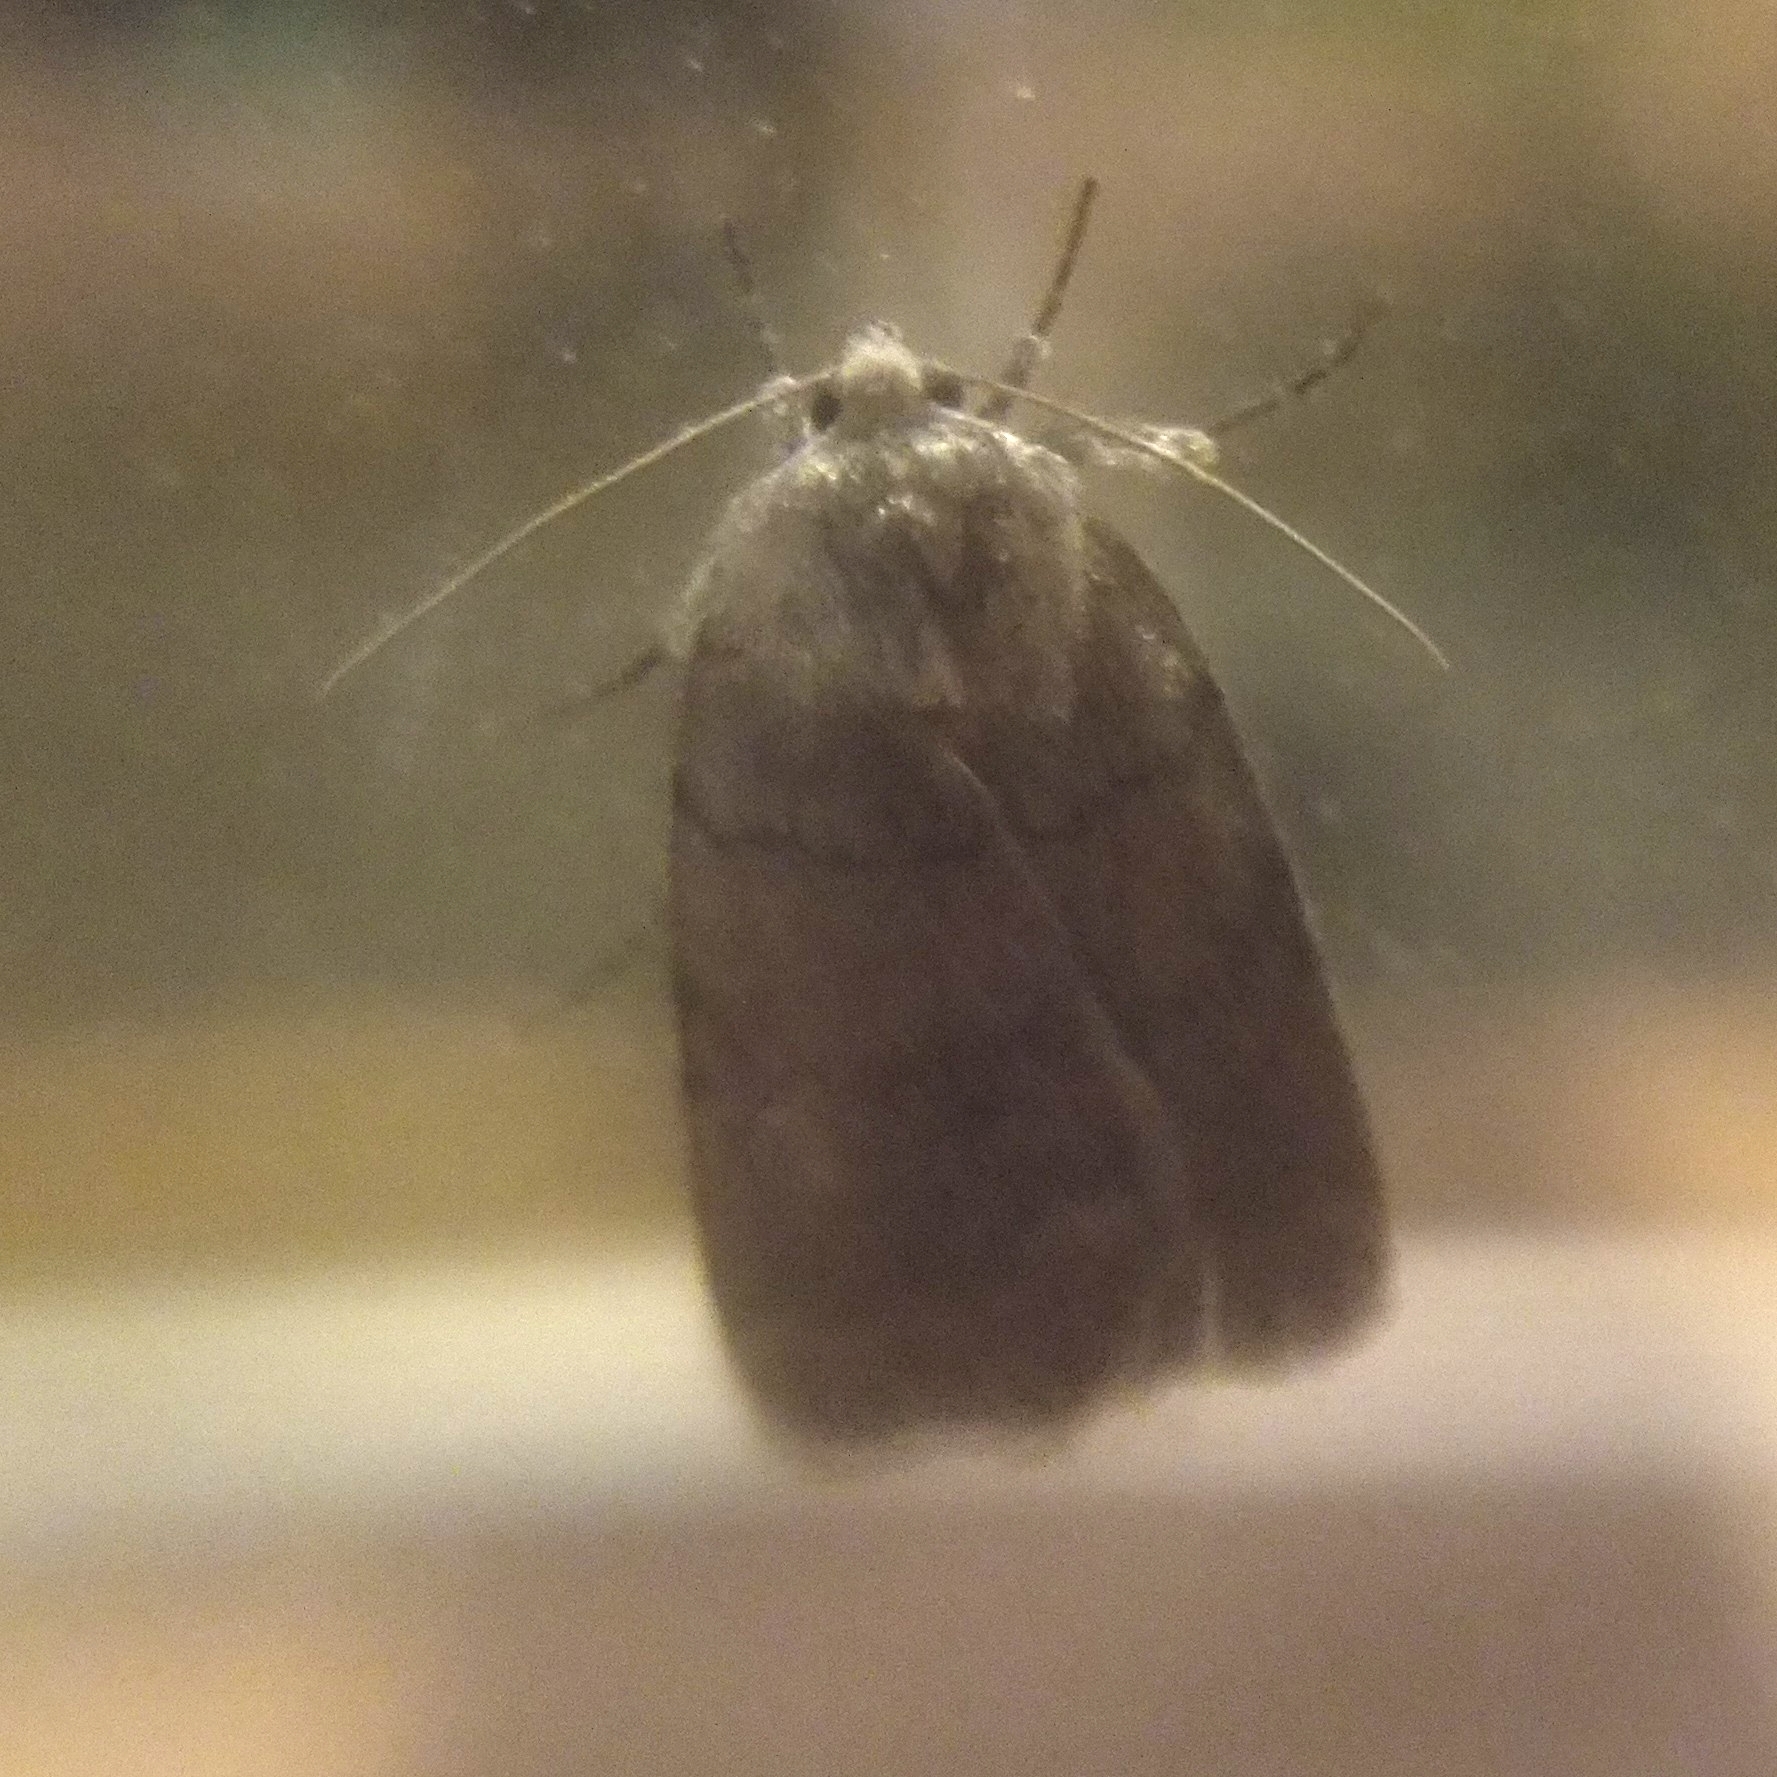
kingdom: Animalia
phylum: Arthropoda
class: Insecta
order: Lepidoptera
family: Noctuidae
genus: Athetis
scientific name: Athetis tarda
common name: Slowpoke moth
